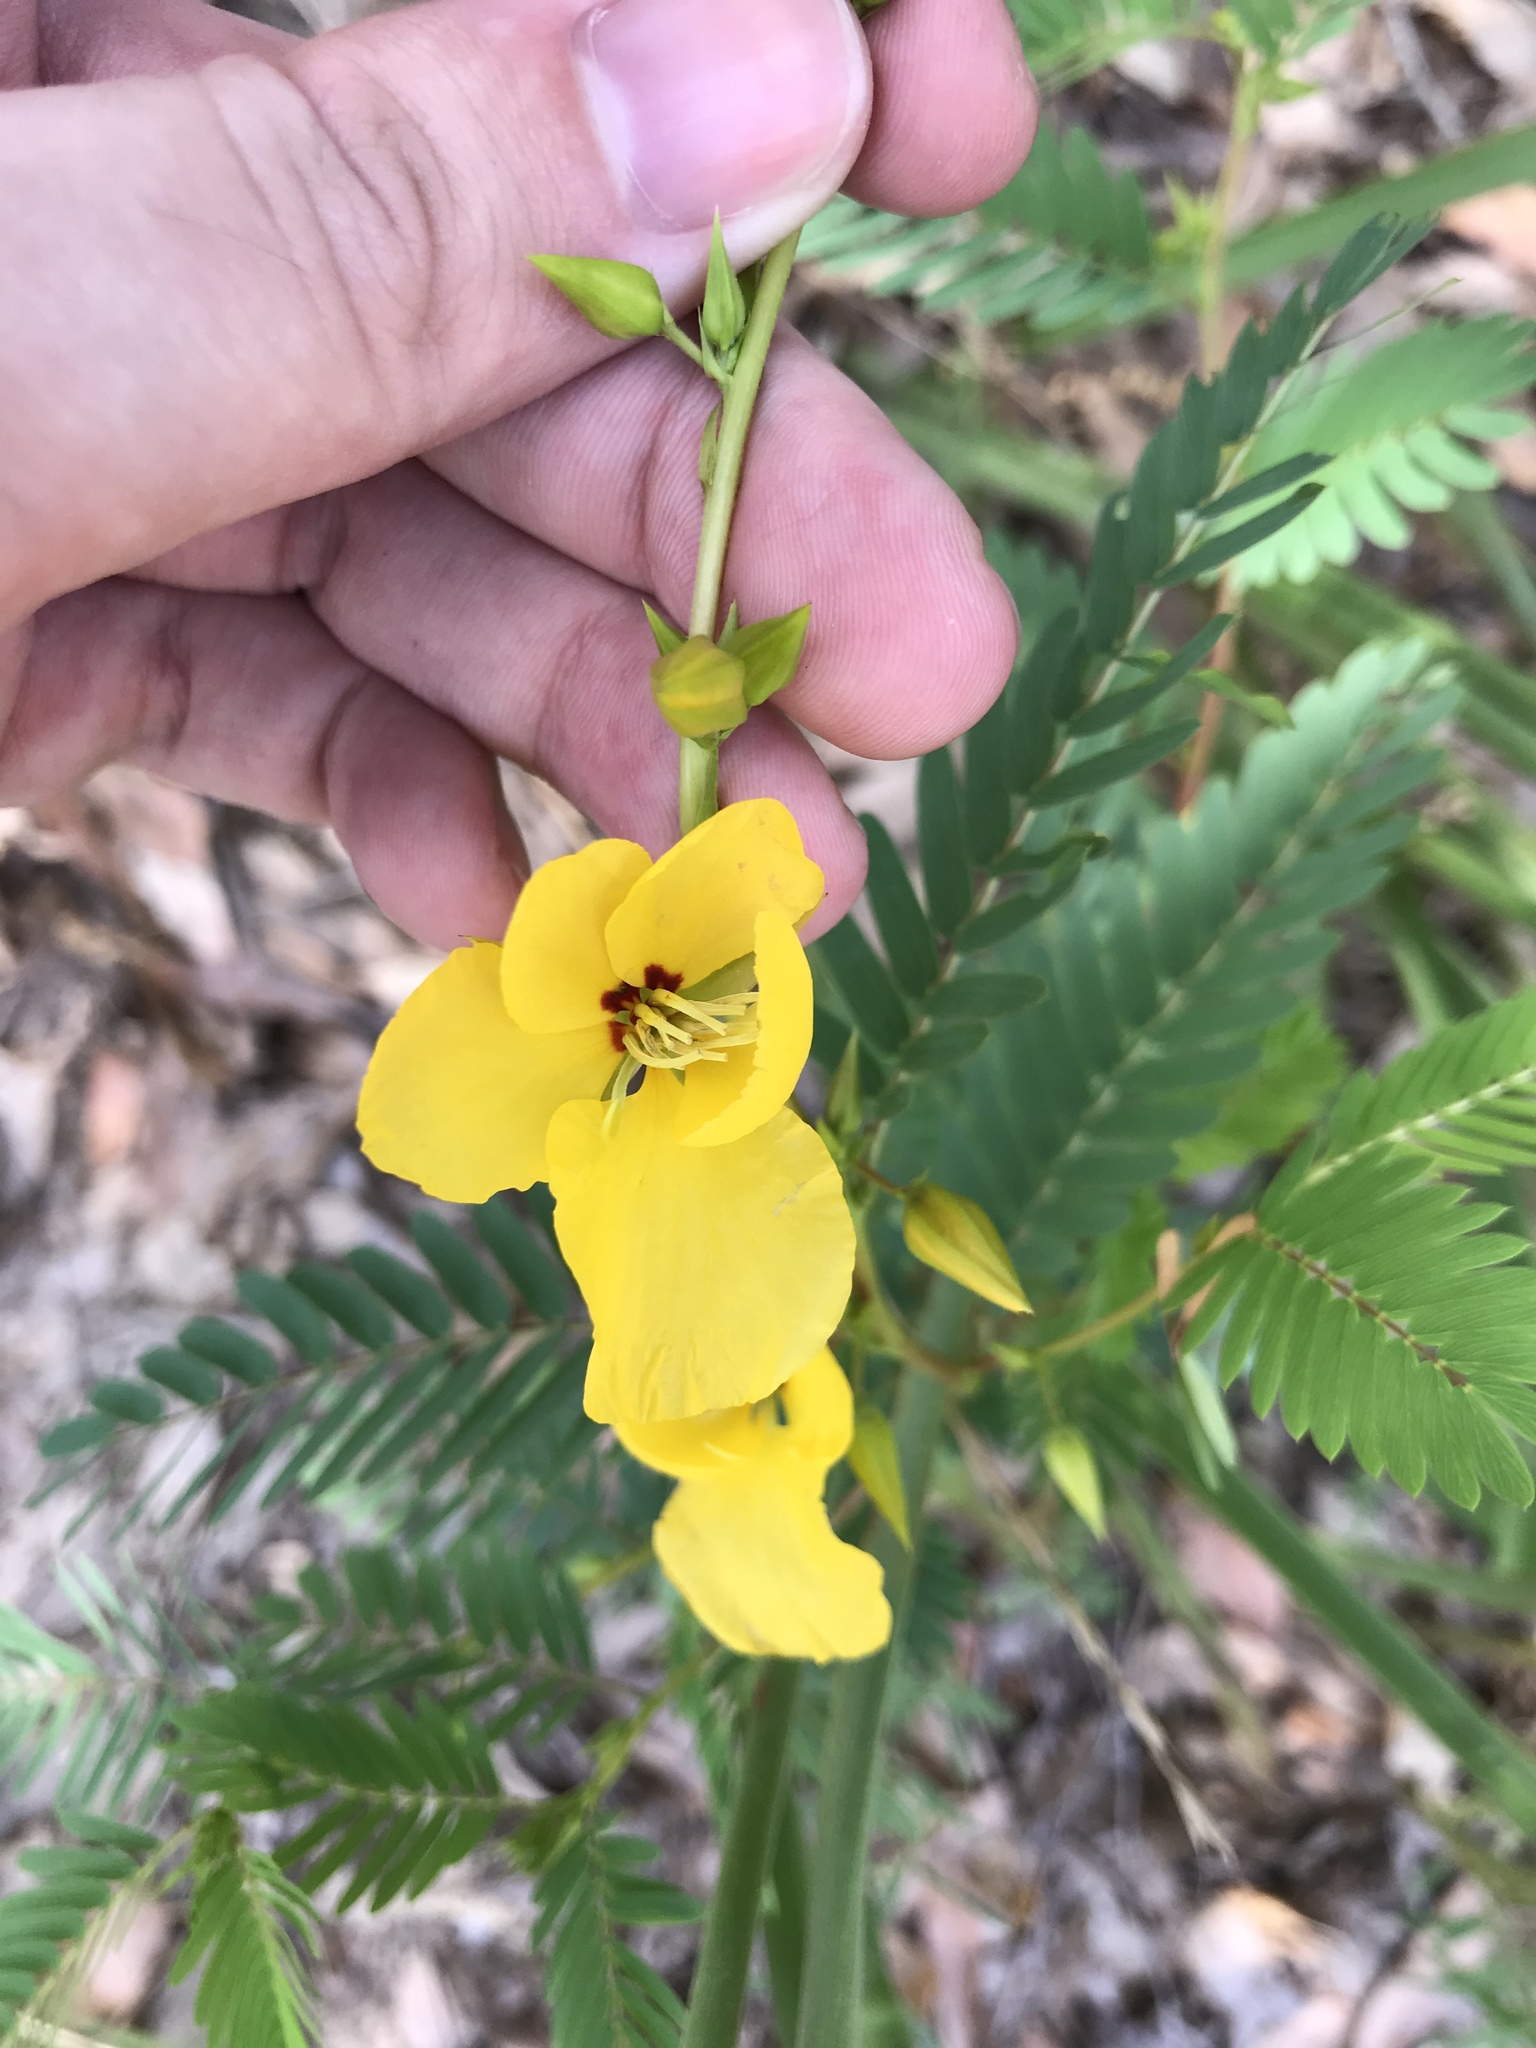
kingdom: Plantae
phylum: Tracheophyta
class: Magnoliopsida
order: Fabales
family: Fabaceae
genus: Chamaecrista
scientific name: Chamaecrista fasciculata
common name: Golden cassia
